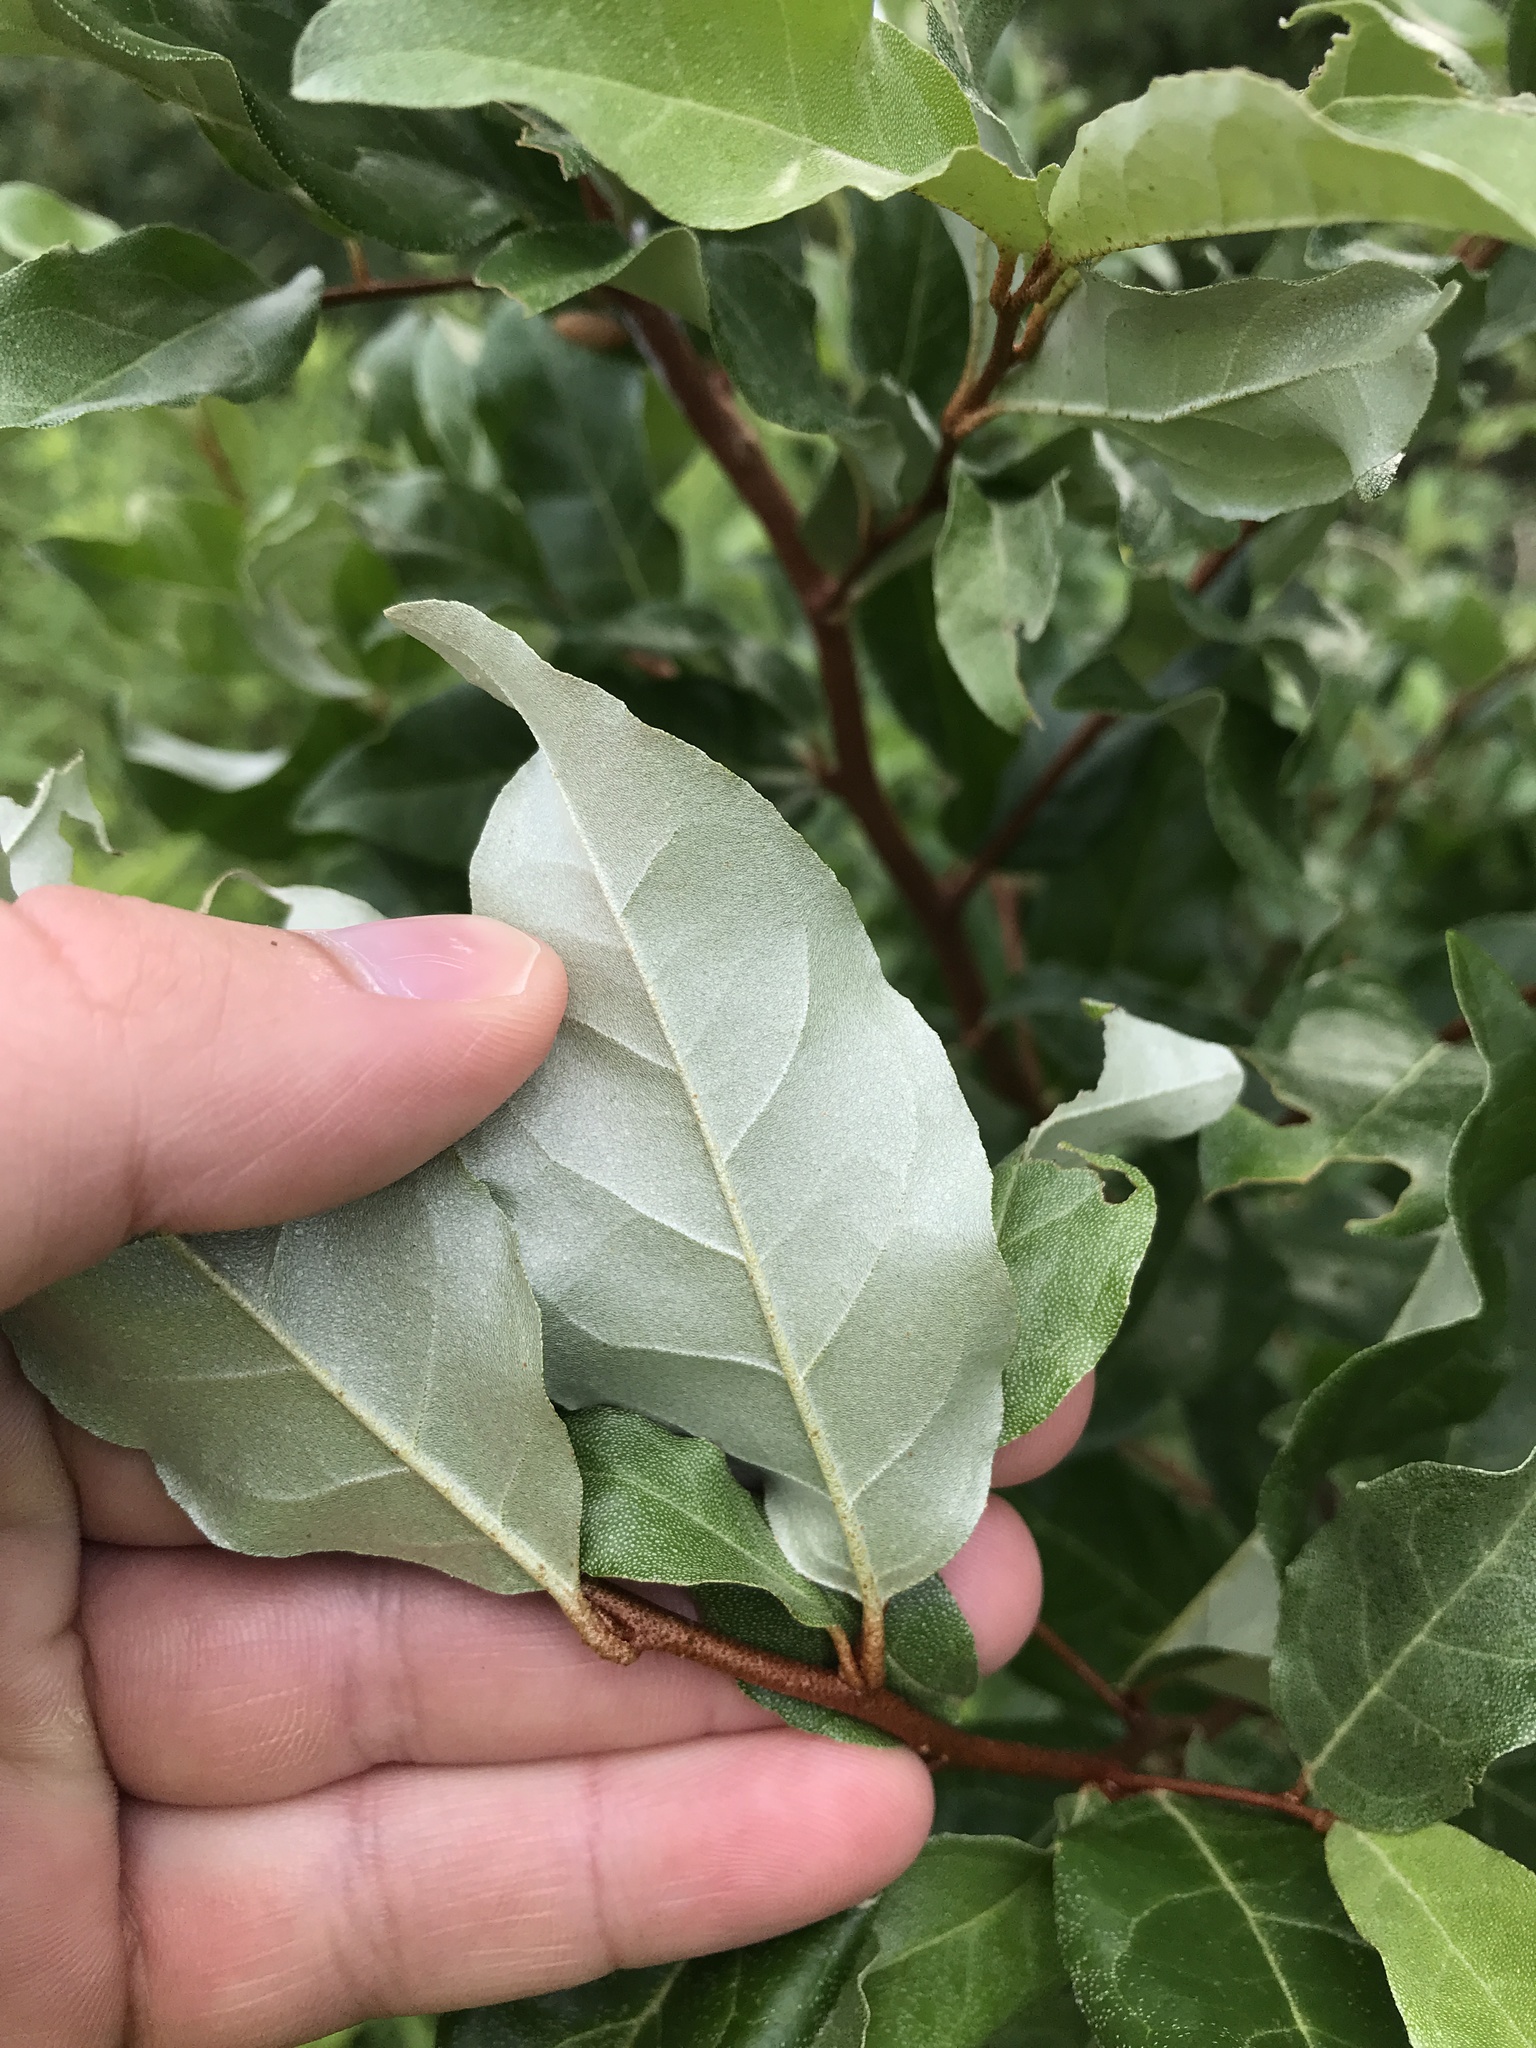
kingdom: Plantae
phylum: Tracheophyta
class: Magnoliopsida
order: Rosales
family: Elaeagnaceae
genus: Elaeagnus
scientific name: Elaeagnus umbellata
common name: Autumn olive
